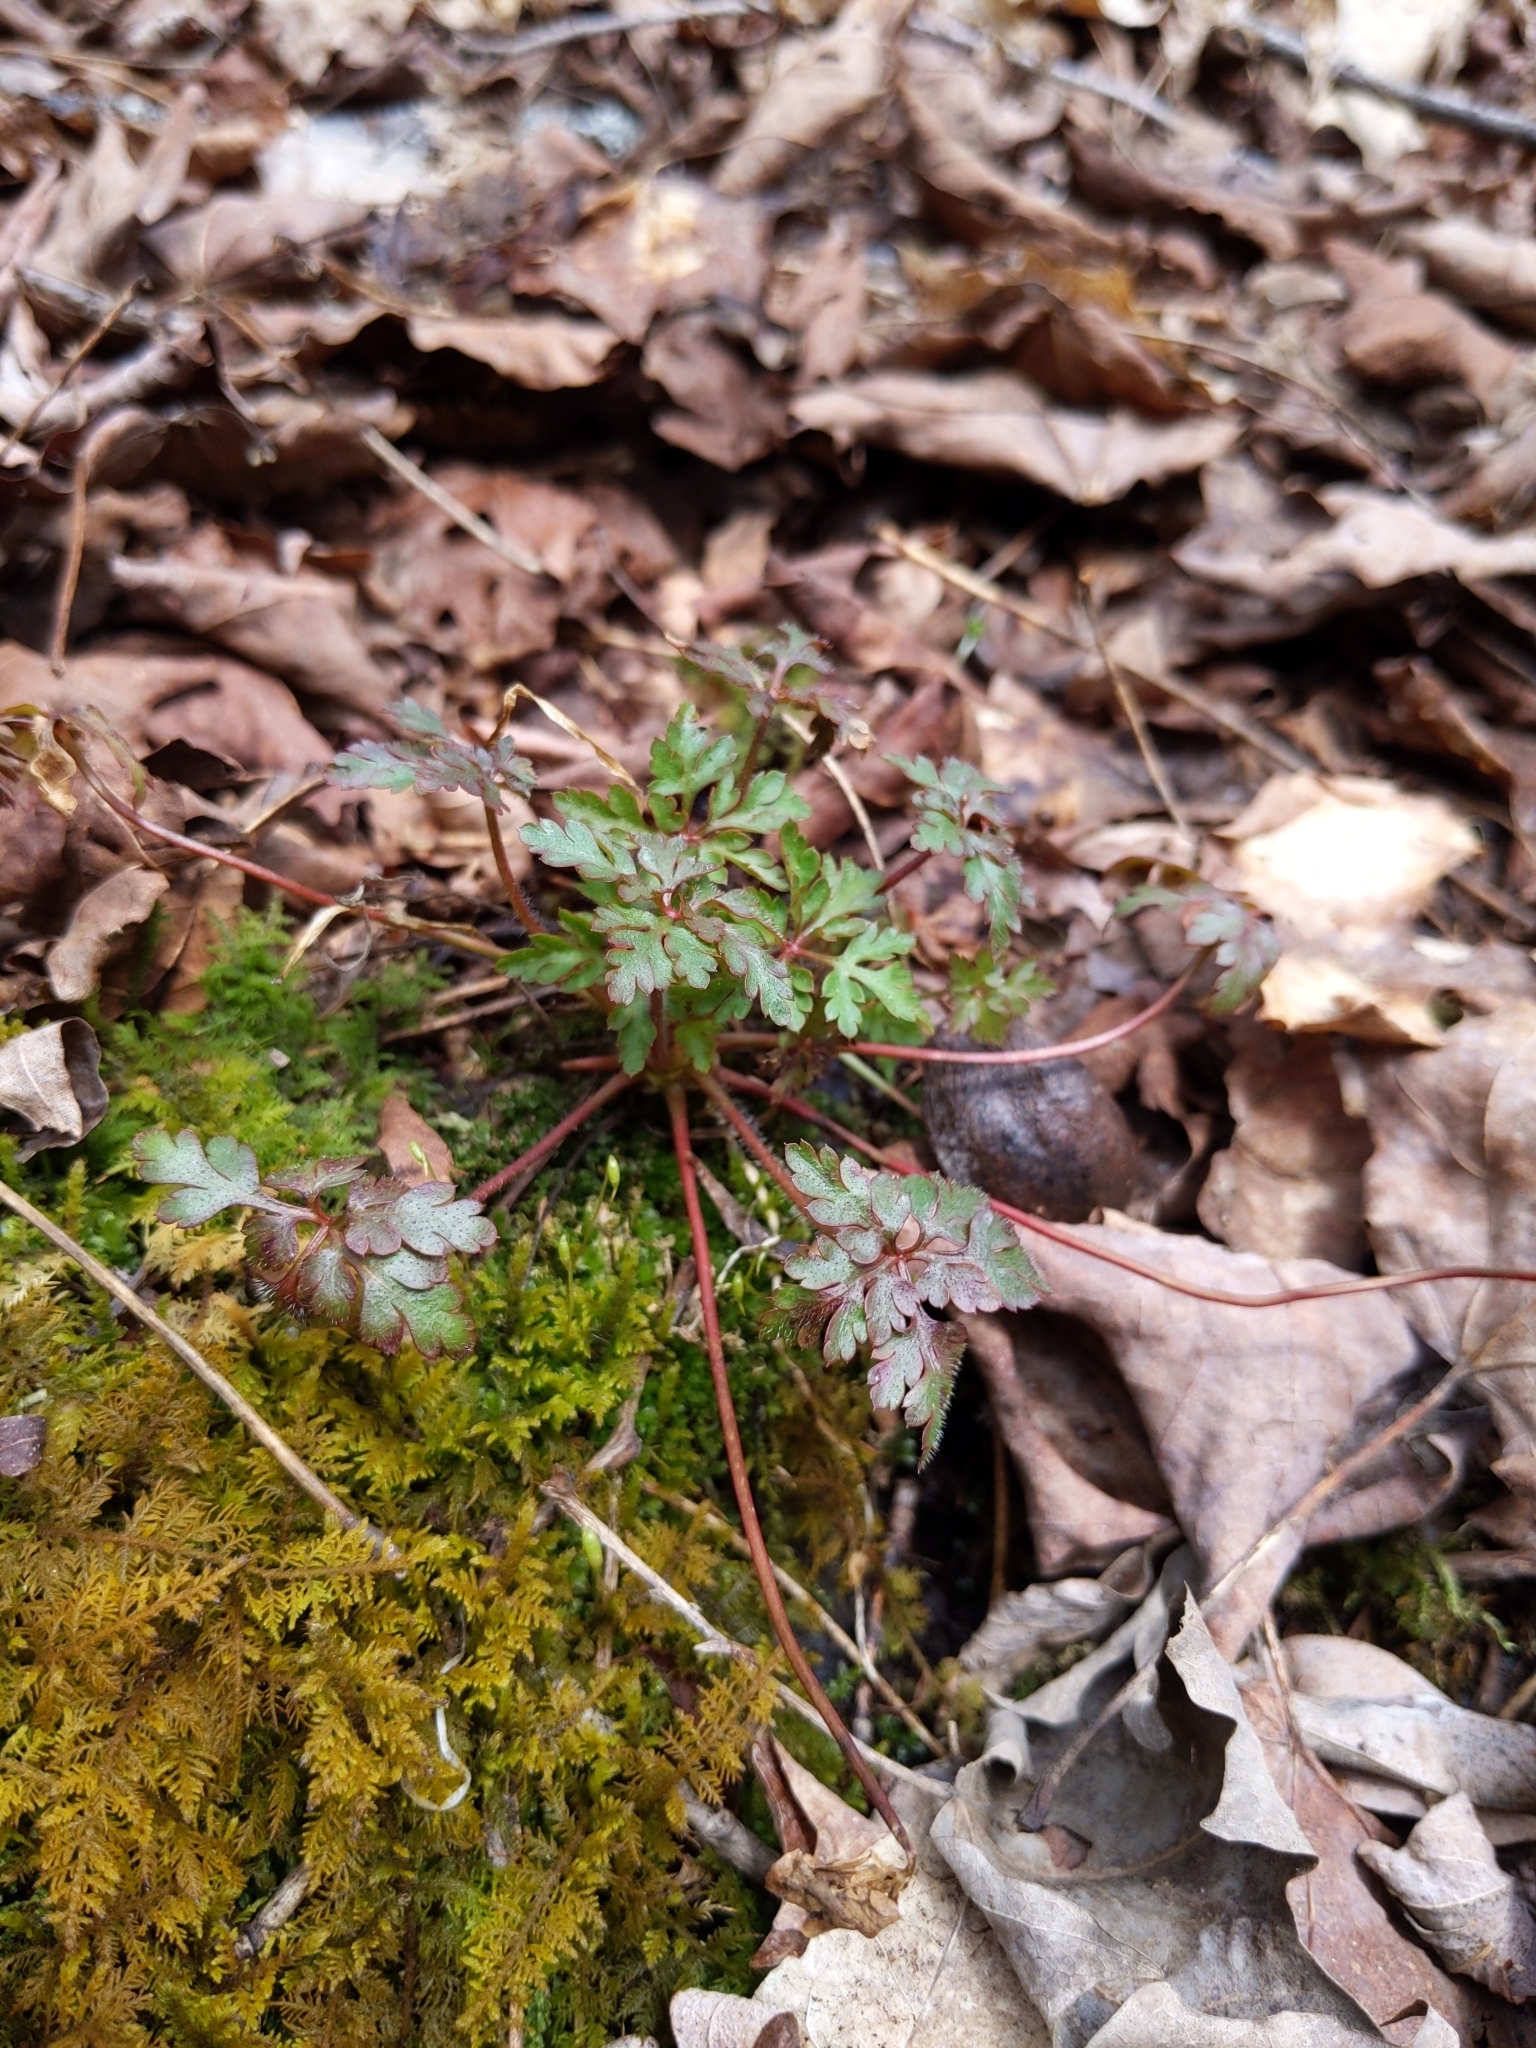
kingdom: Plantae
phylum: Tracheophyta
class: Magnoliopsida
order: Geraniales
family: Geraniaceae
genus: Geranium
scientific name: Geranium robertianum
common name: Herb-robert
